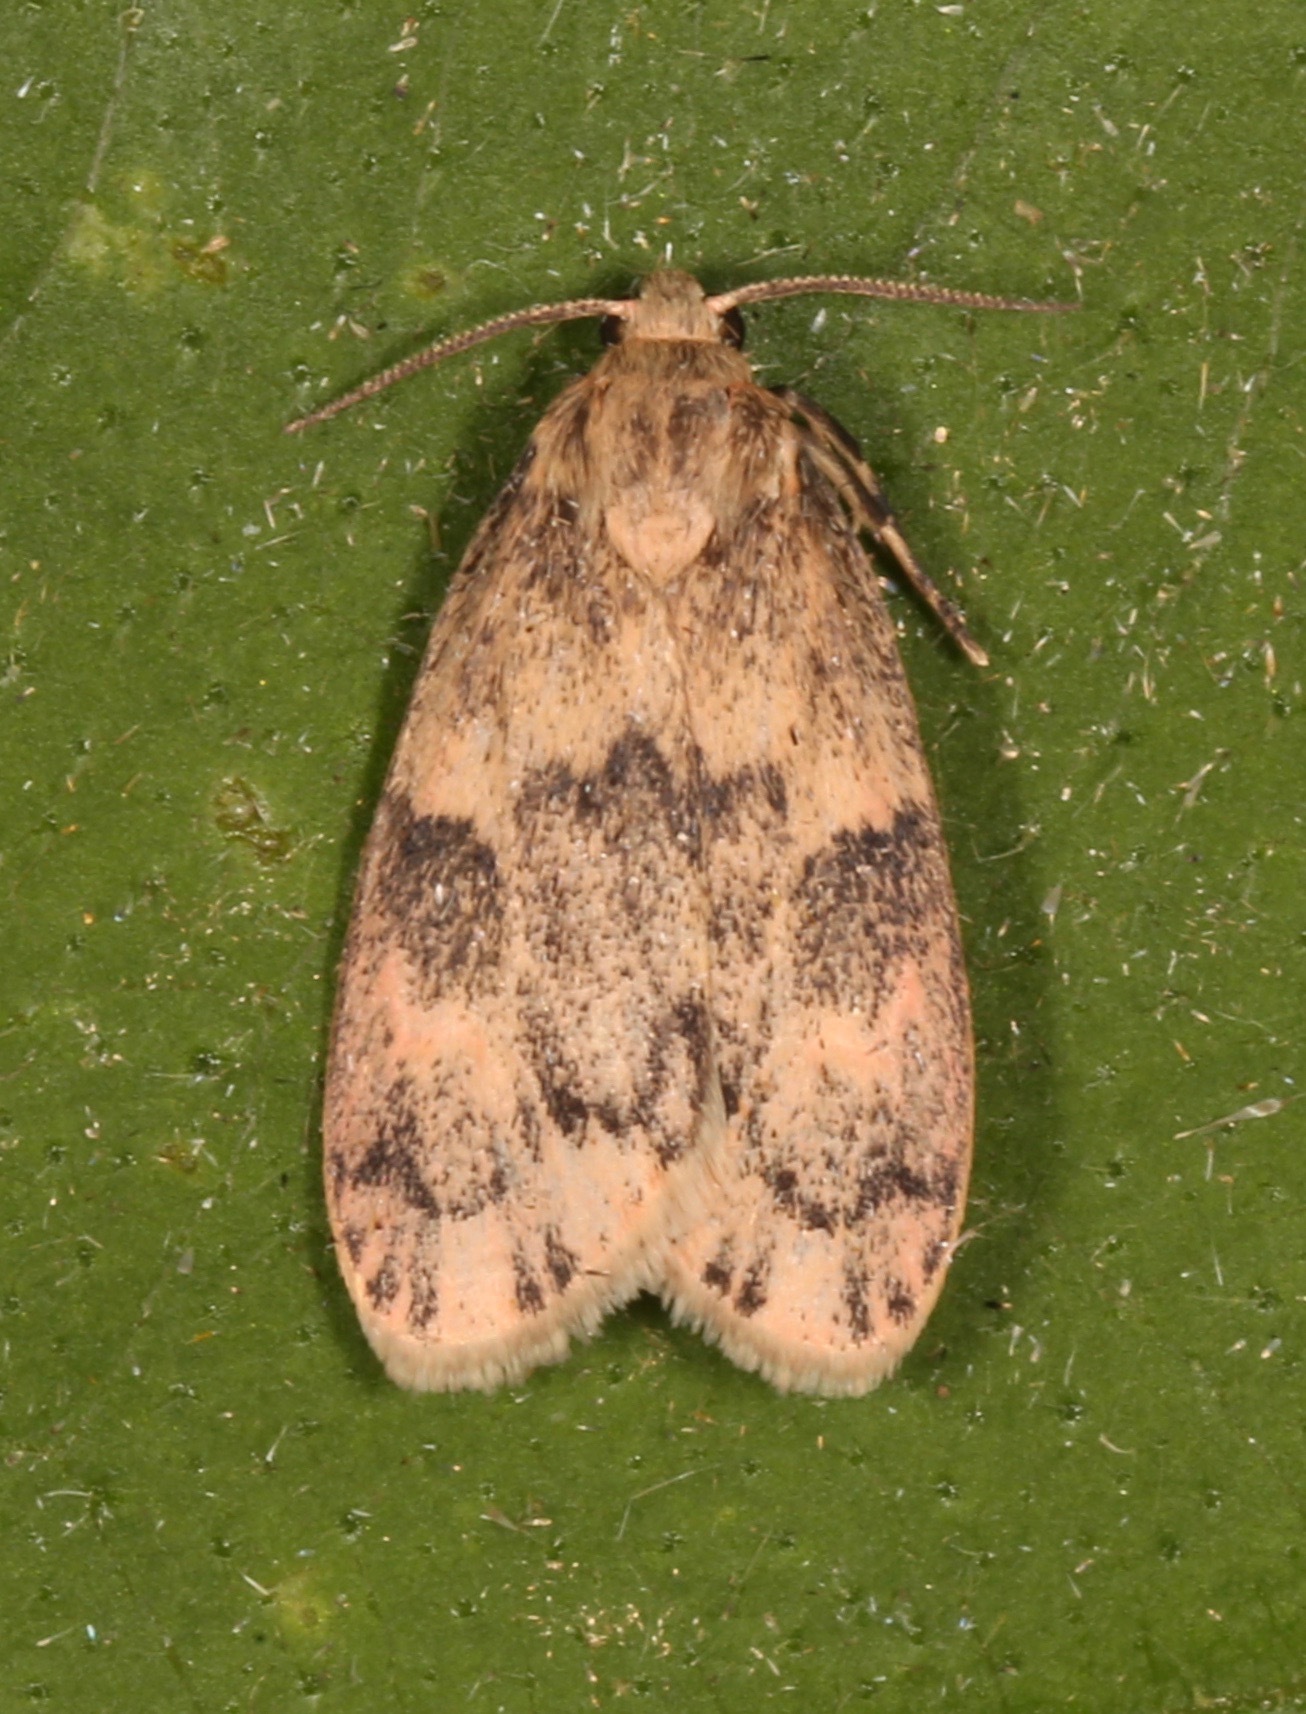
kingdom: Animalia
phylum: Arthropoda
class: Insecta
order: Lepidoptera
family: Erebidae
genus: Bruceia
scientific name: Bruceia hubbardi
